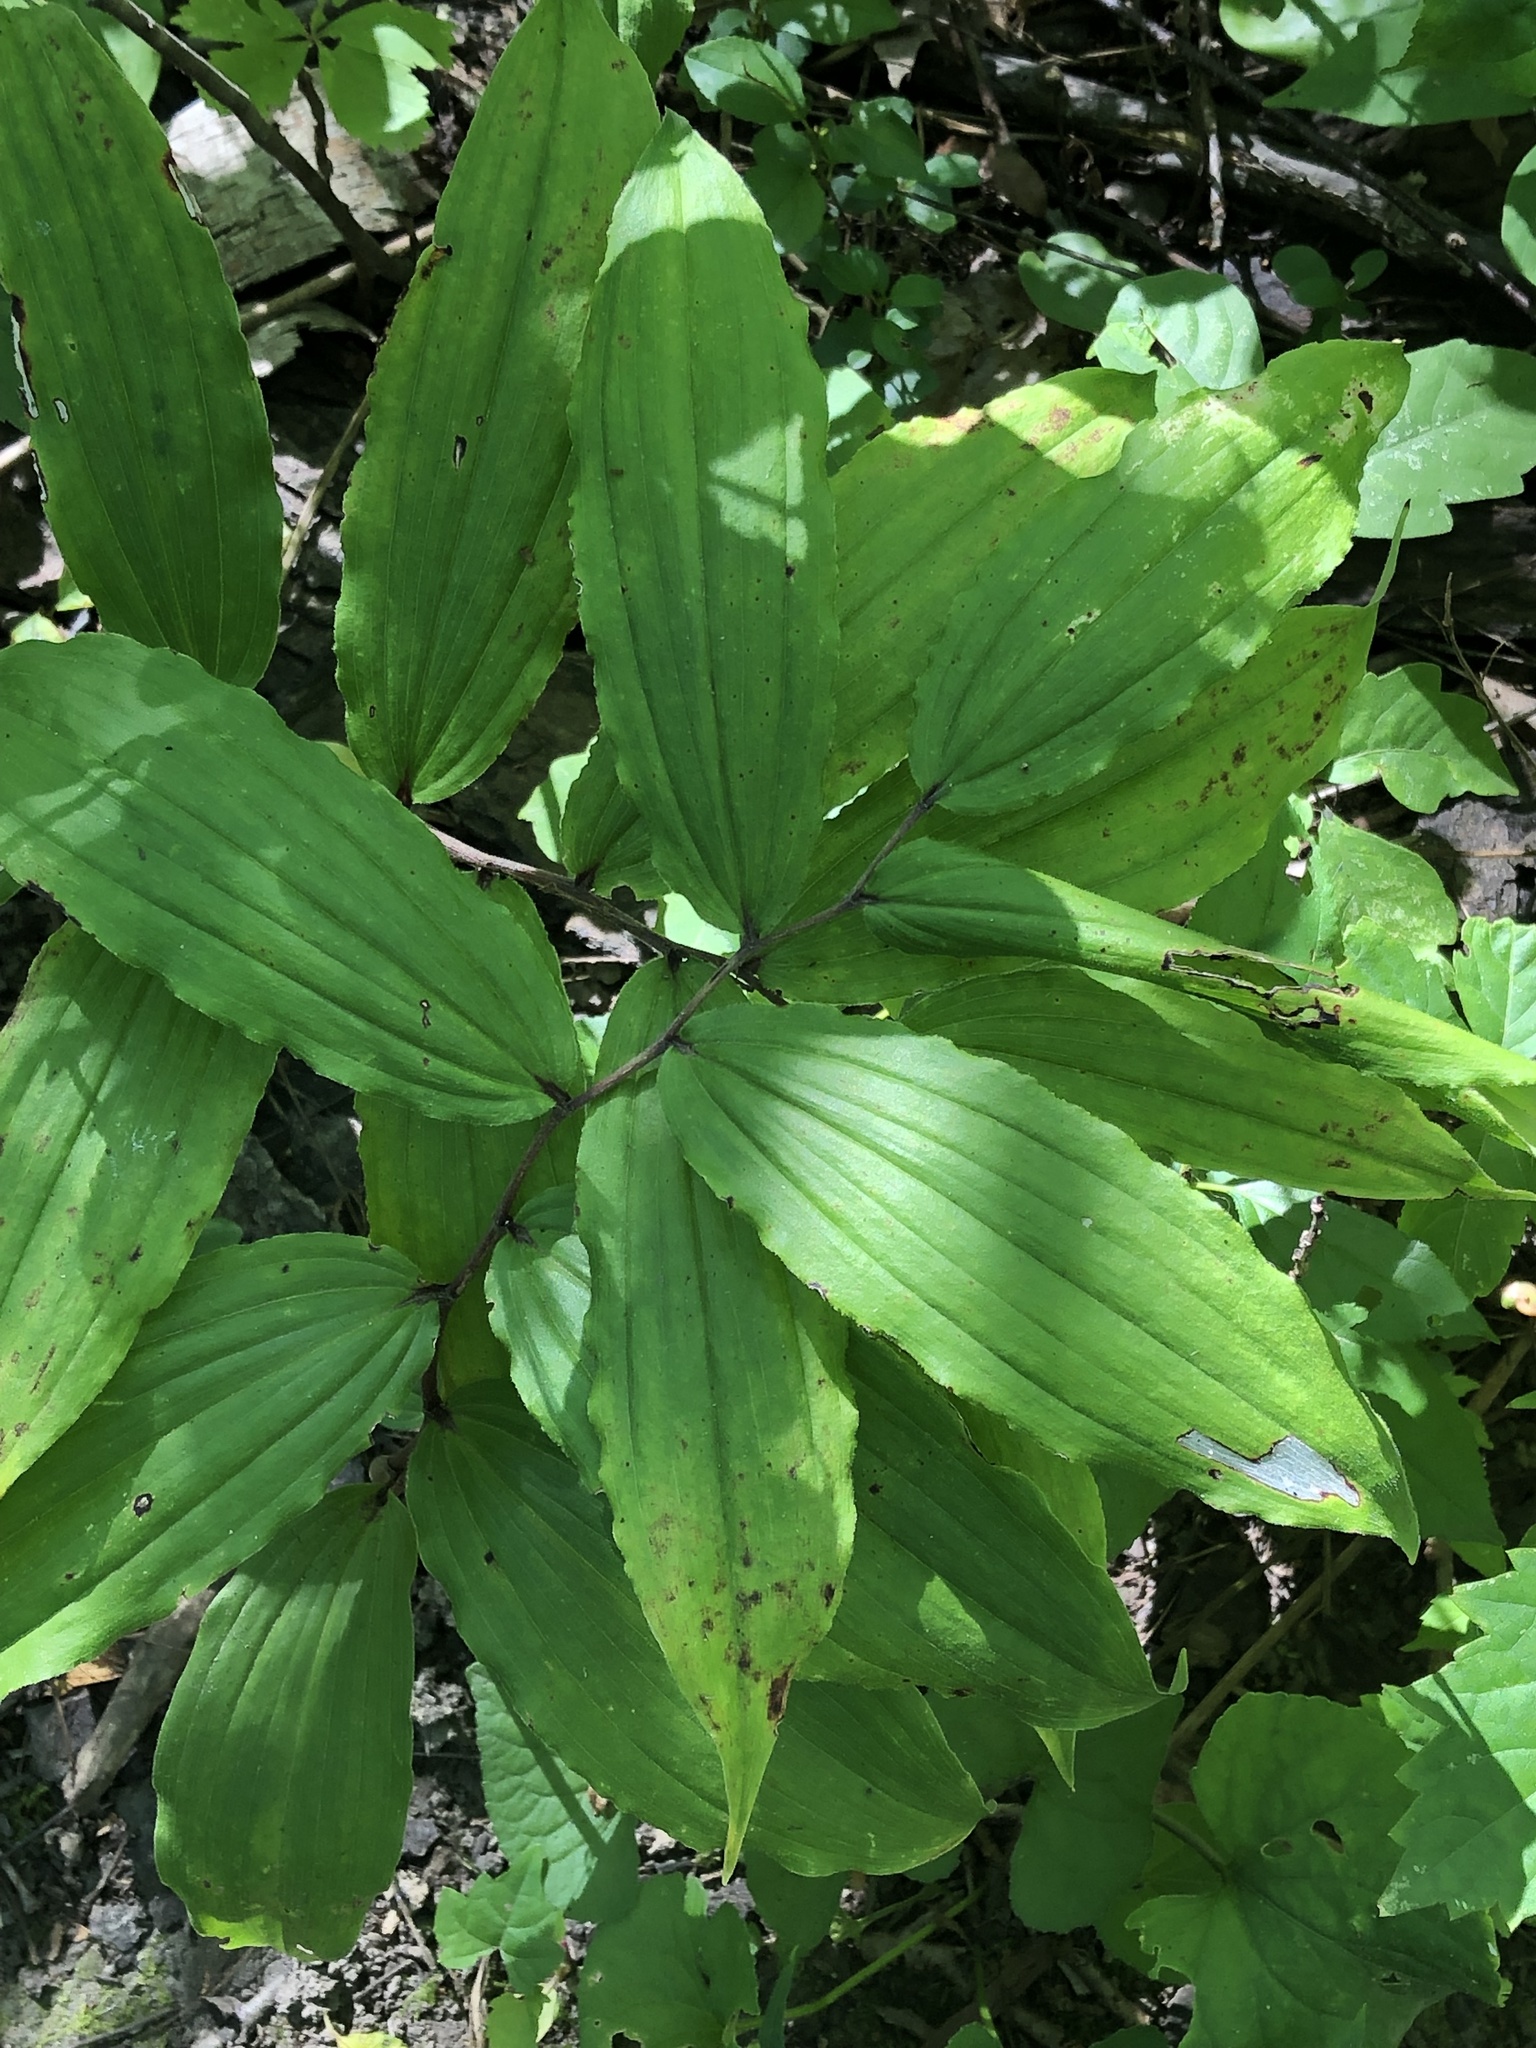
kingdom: Plantae
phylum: Tracheophyta
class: Liliopsida
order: Asparagales
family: Asparagaceae
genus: Maianthemum
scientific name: Maianthemum racemosum
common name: False spikenard
